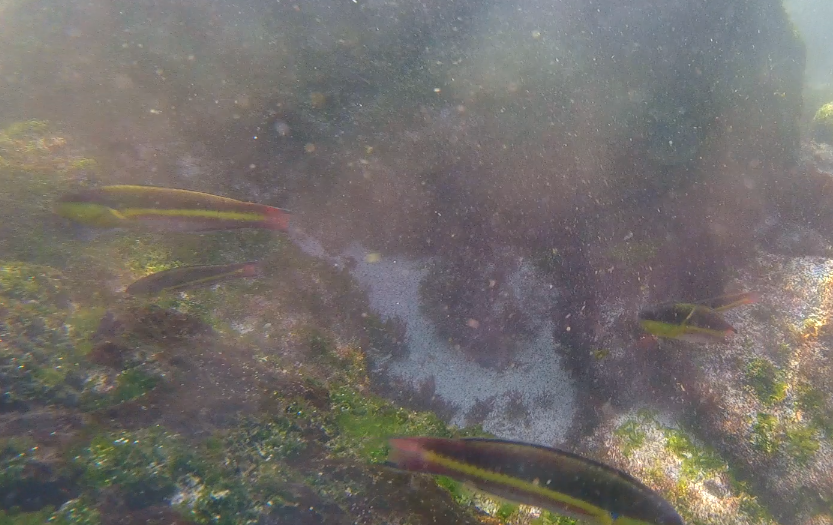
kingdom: Animalia
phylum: Chordata
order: Perciformes
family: Labridae
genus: Thalassoma
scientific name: Thalassoma lucasanum
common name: Cortez rainbow wrasse
